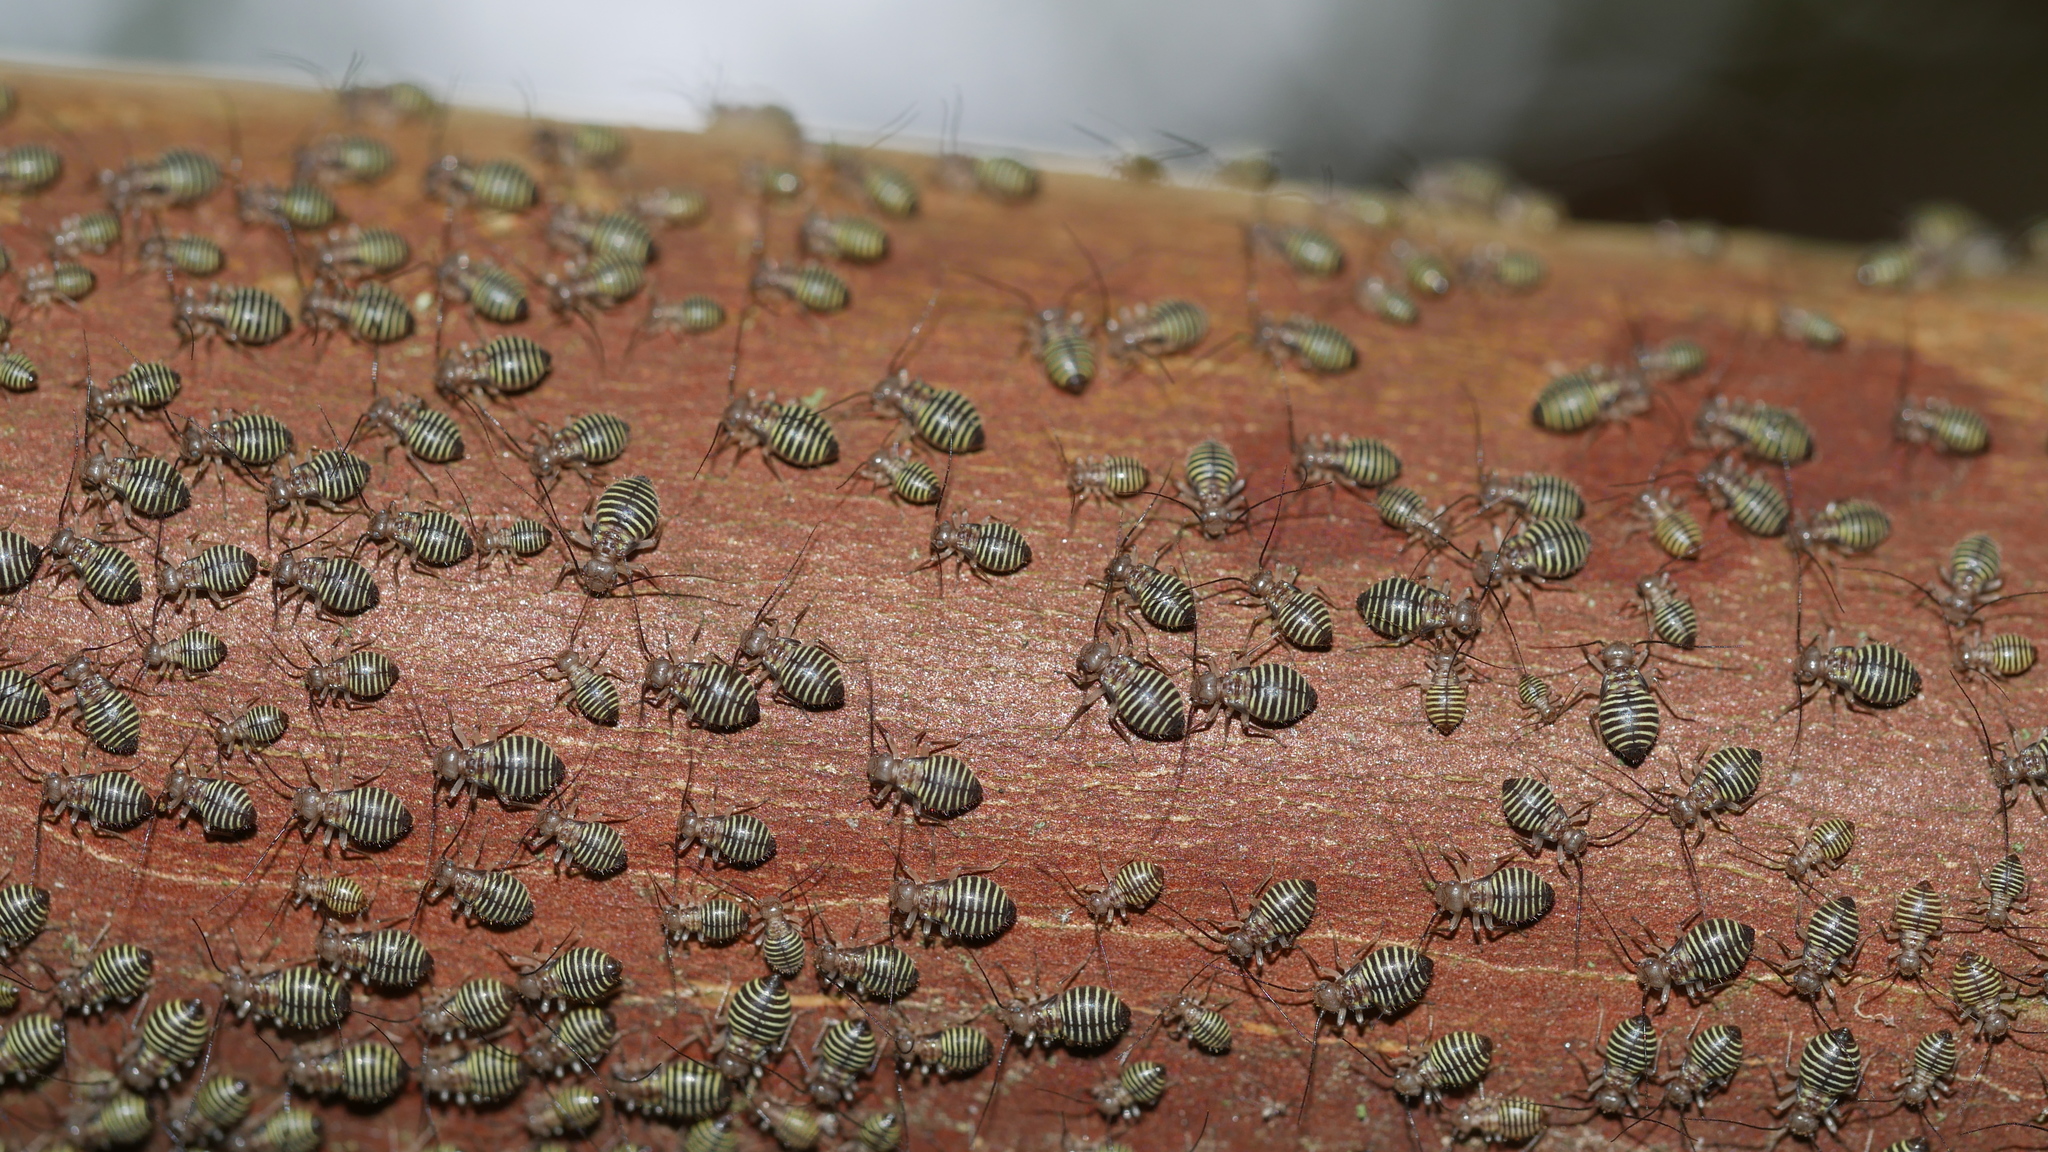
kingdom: Animalia
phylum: Arthropoda
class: Insecta
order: Psocodea
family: Psocidae
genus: Cerastipsocus
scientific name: Cerastipsocus venosus
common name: Tree cattle
